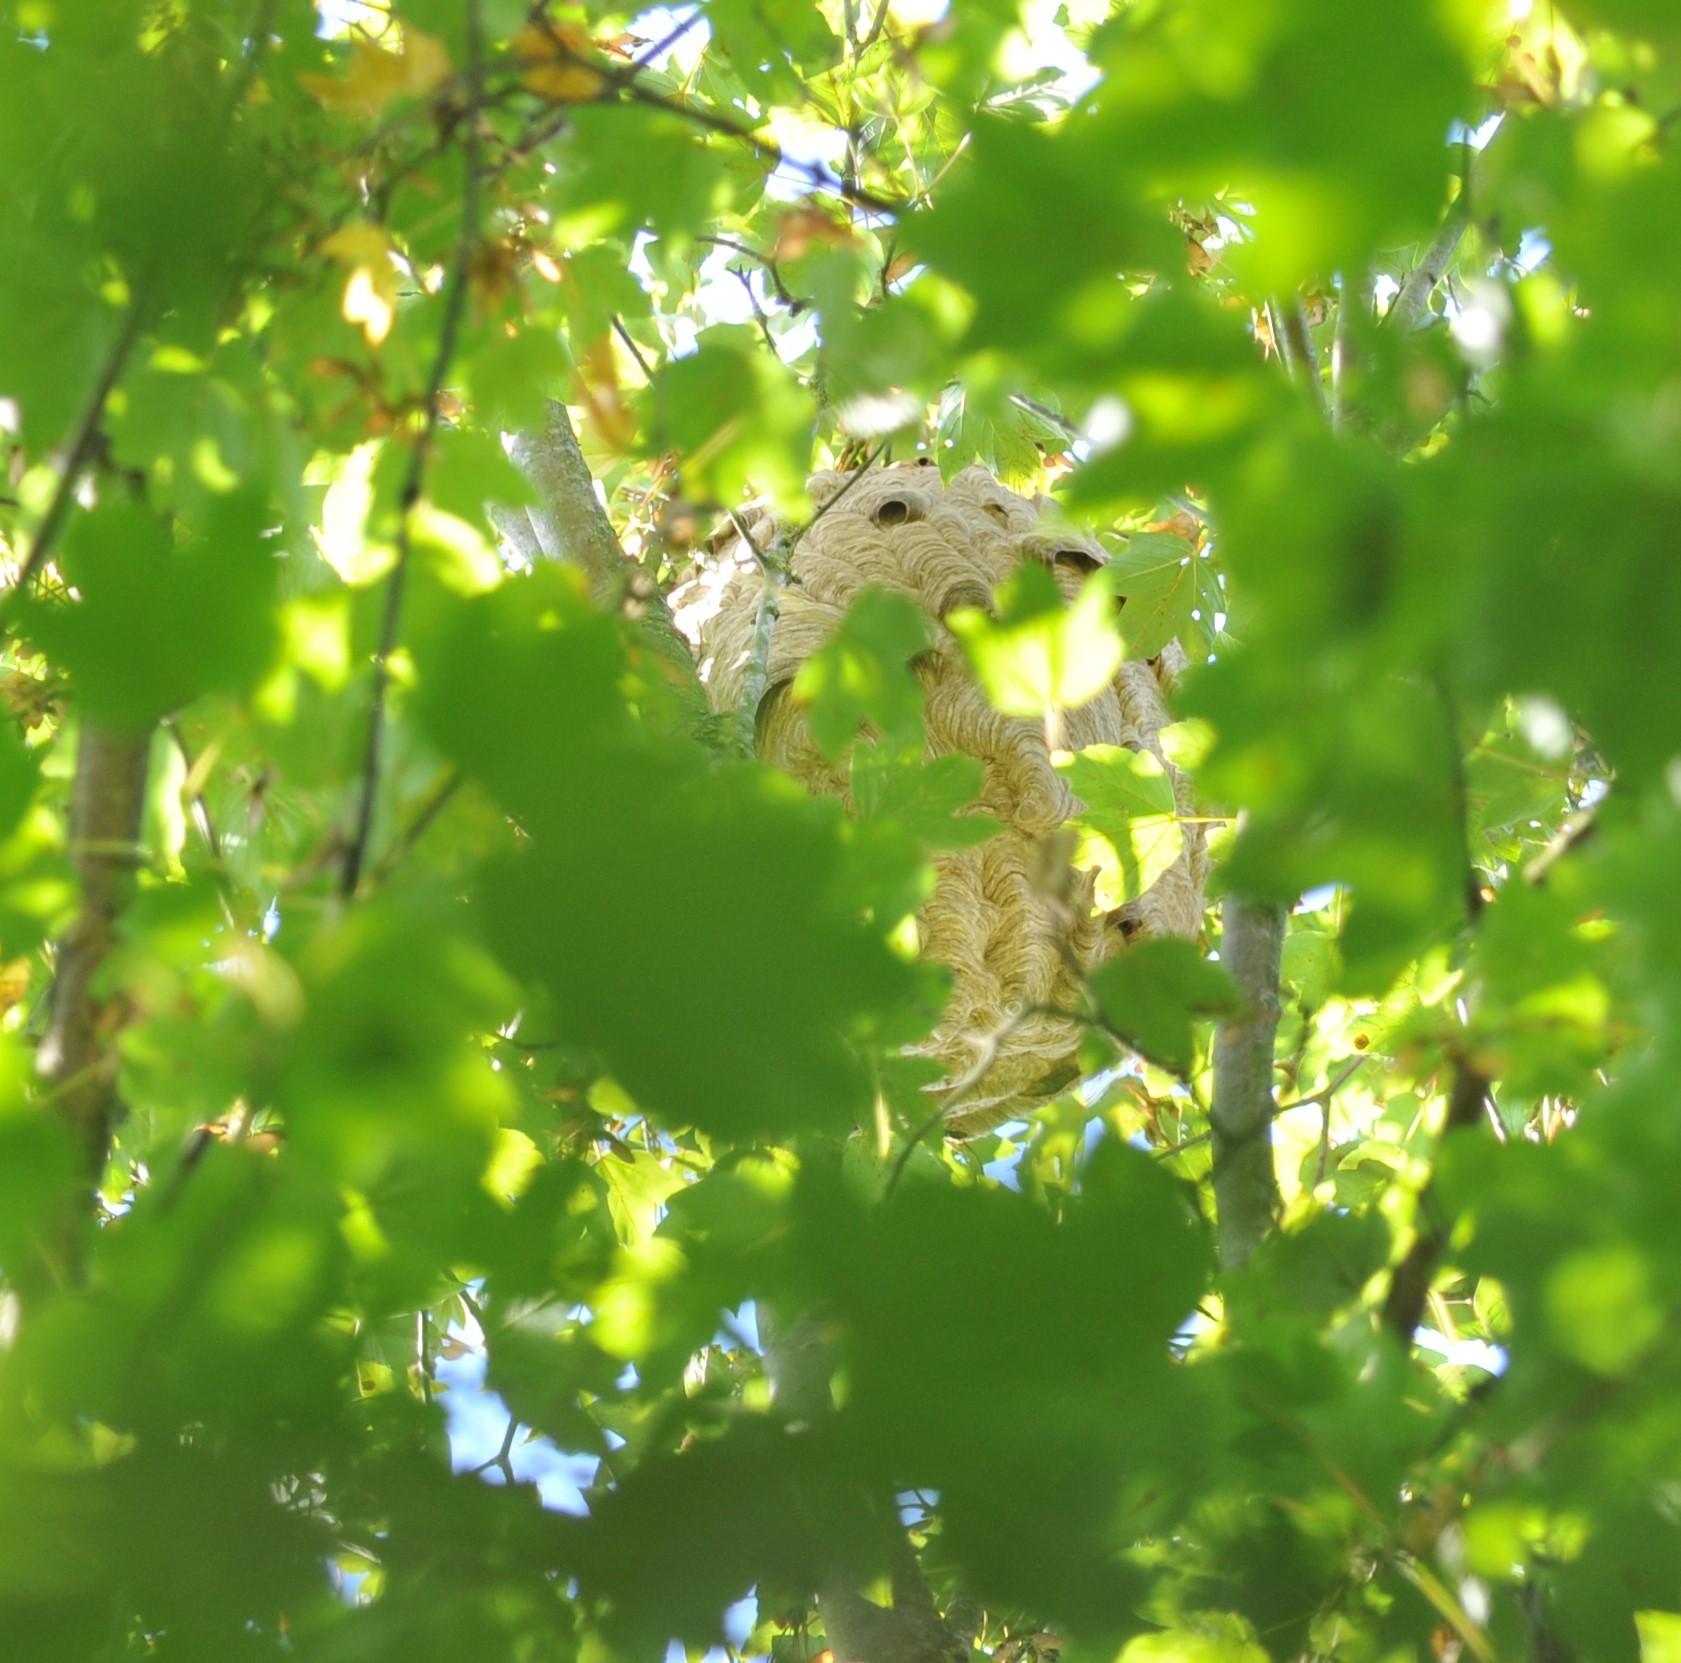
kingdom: Animalia
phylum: Arthropoda
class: Insecta
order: Hymenoptera
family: Vespidae
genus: Vespa
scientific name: Vespa velutina
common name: Asian hornet
